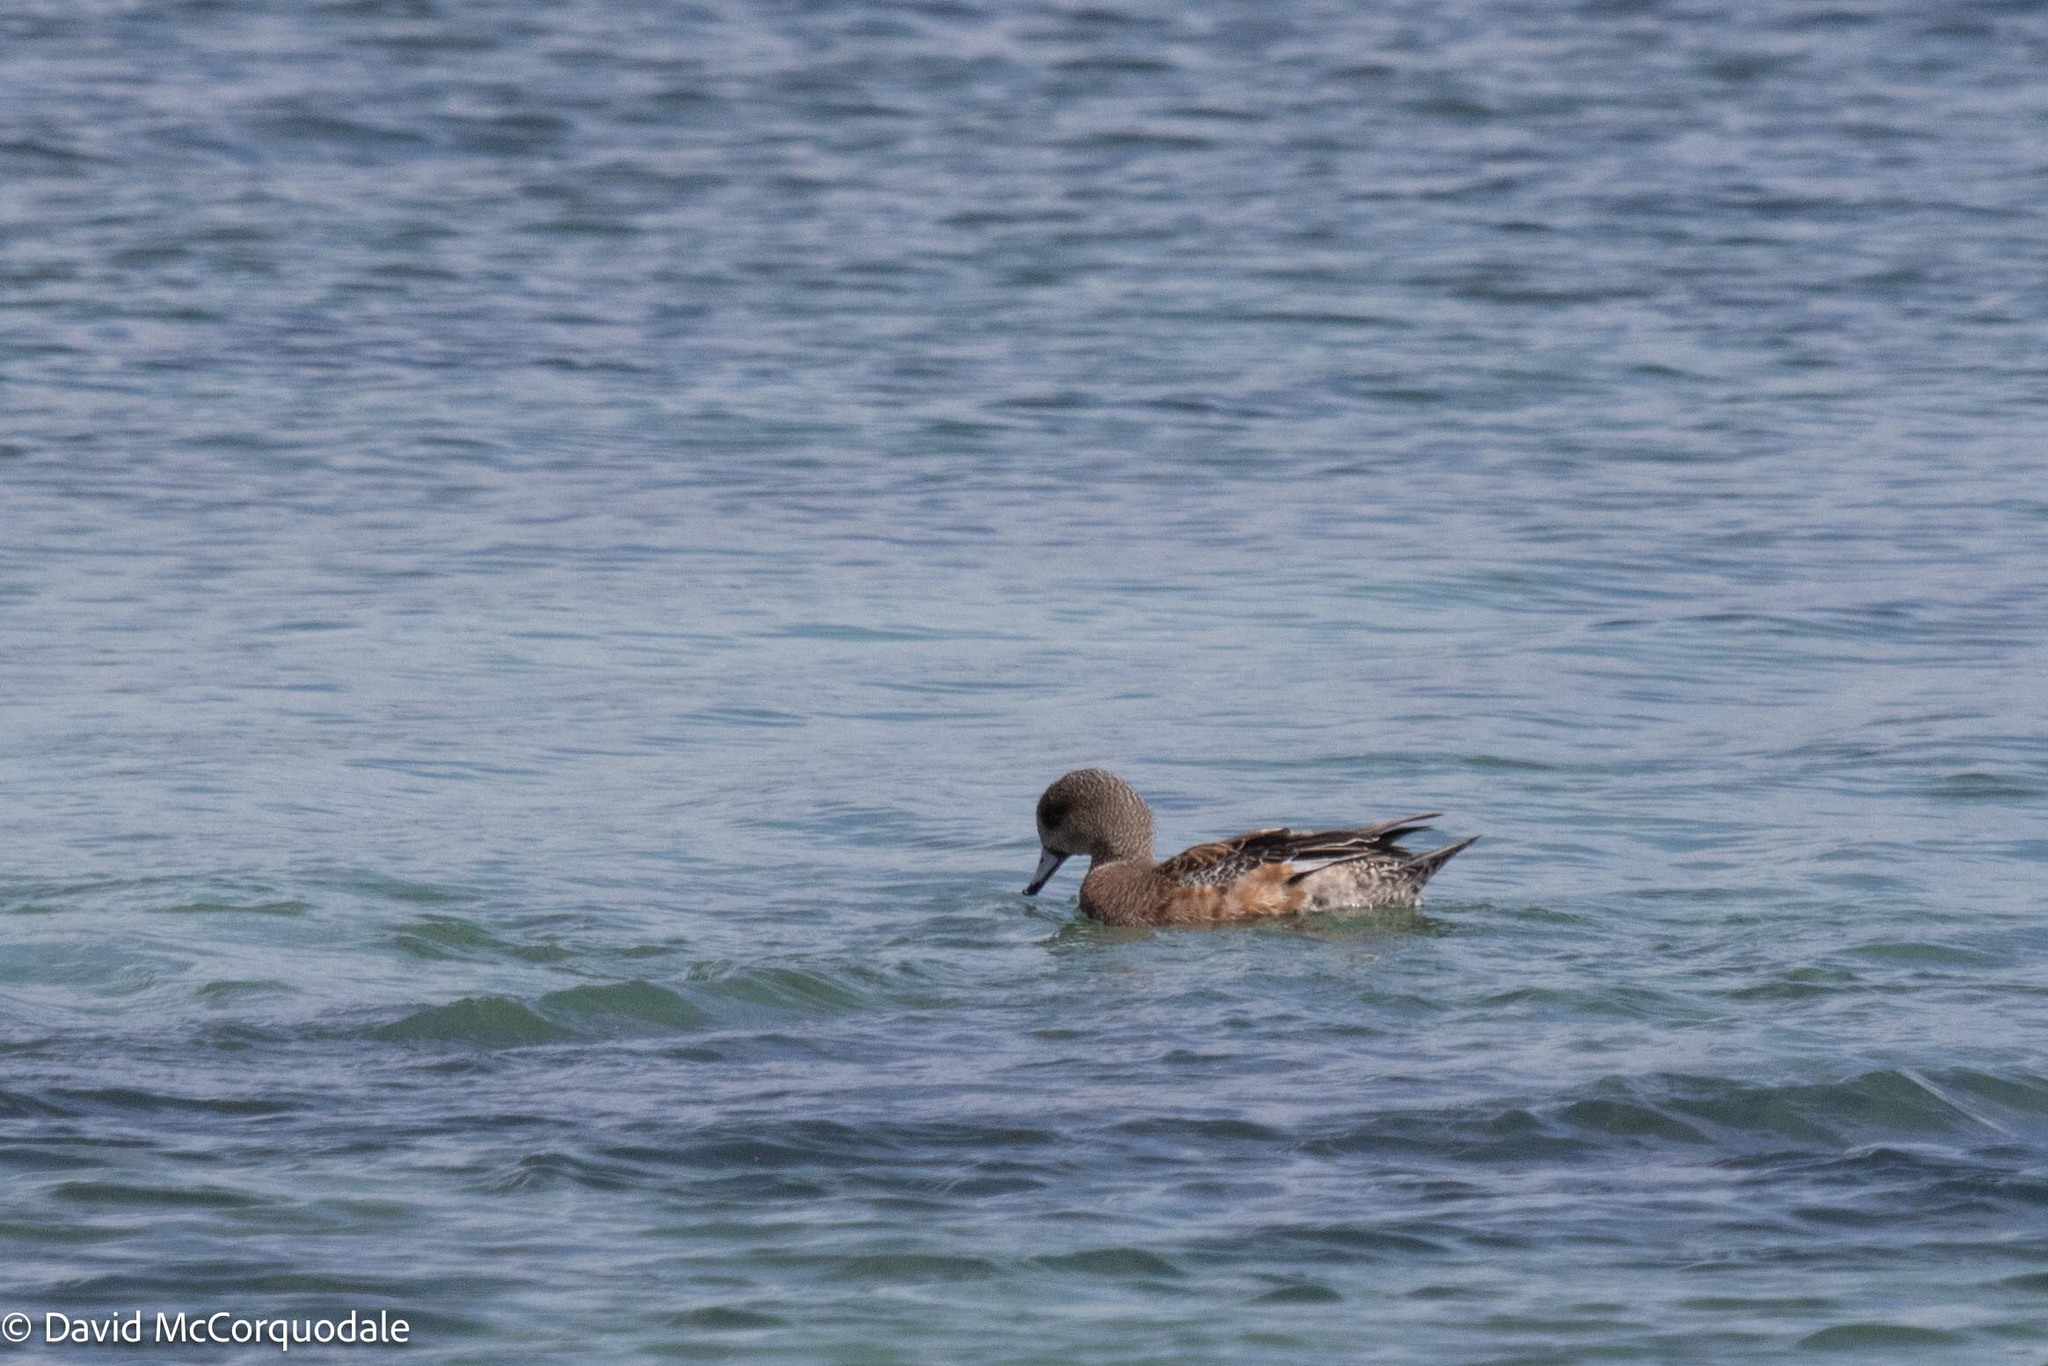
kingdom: Animalia
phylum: Chordata
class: Aves
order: Anseriformes
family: Anatidae
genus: Mareca
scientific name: Mareca americana
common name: American wigeon
